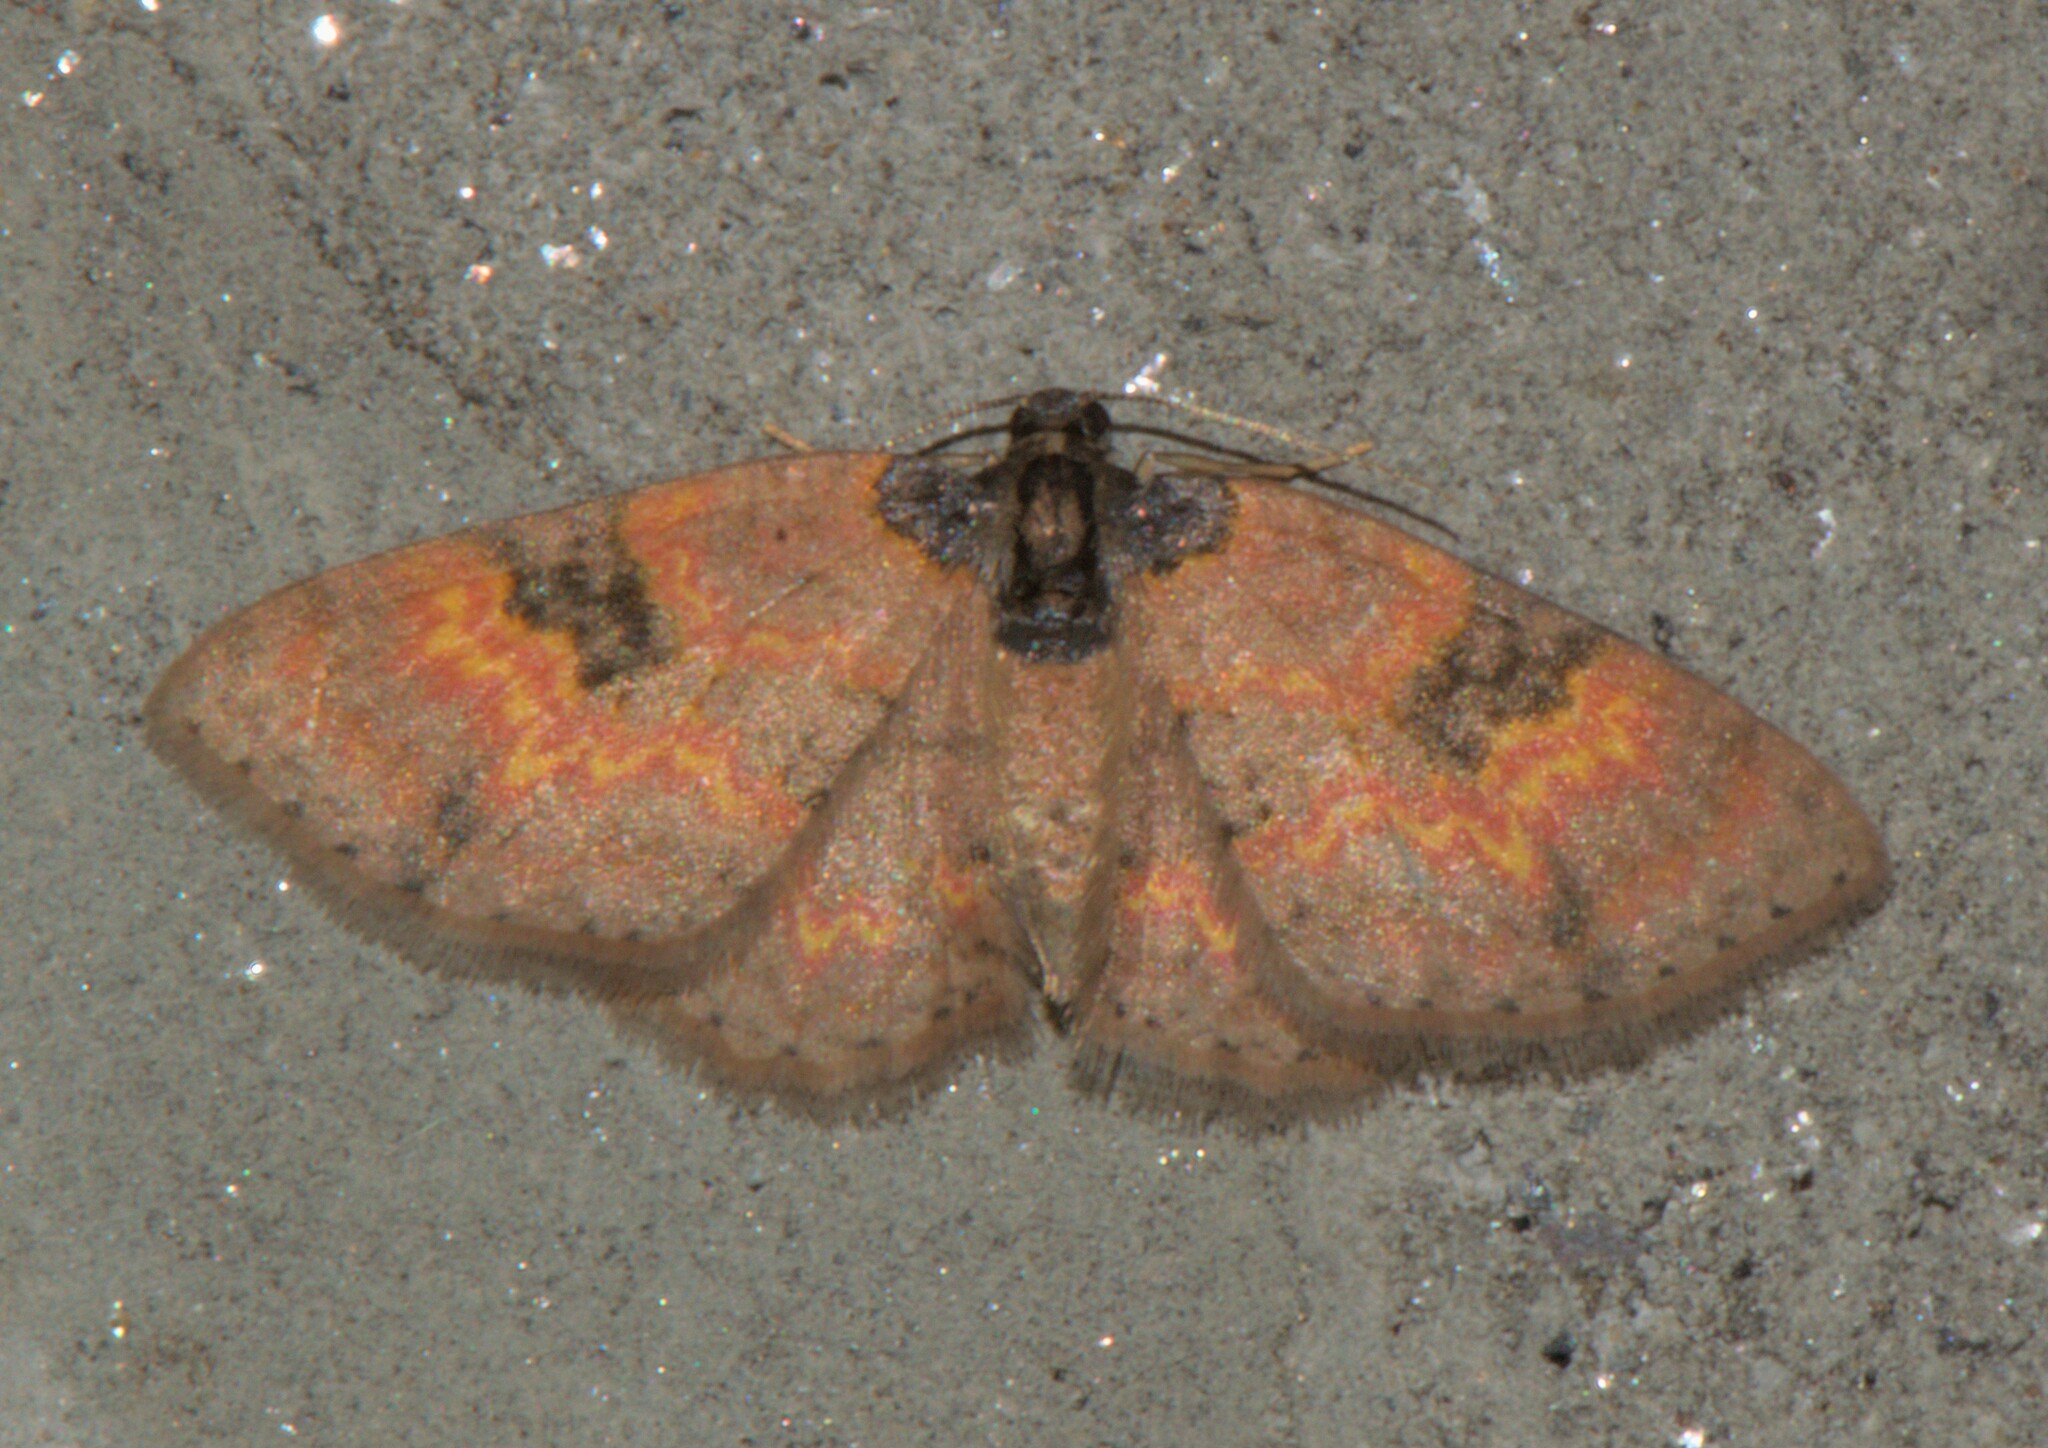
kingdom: Animalia
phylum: Arthropoda
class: Insecta
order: Lepidoptera
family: Geometridae
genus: Hydrelia
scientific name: Hydrelia bicolorata
